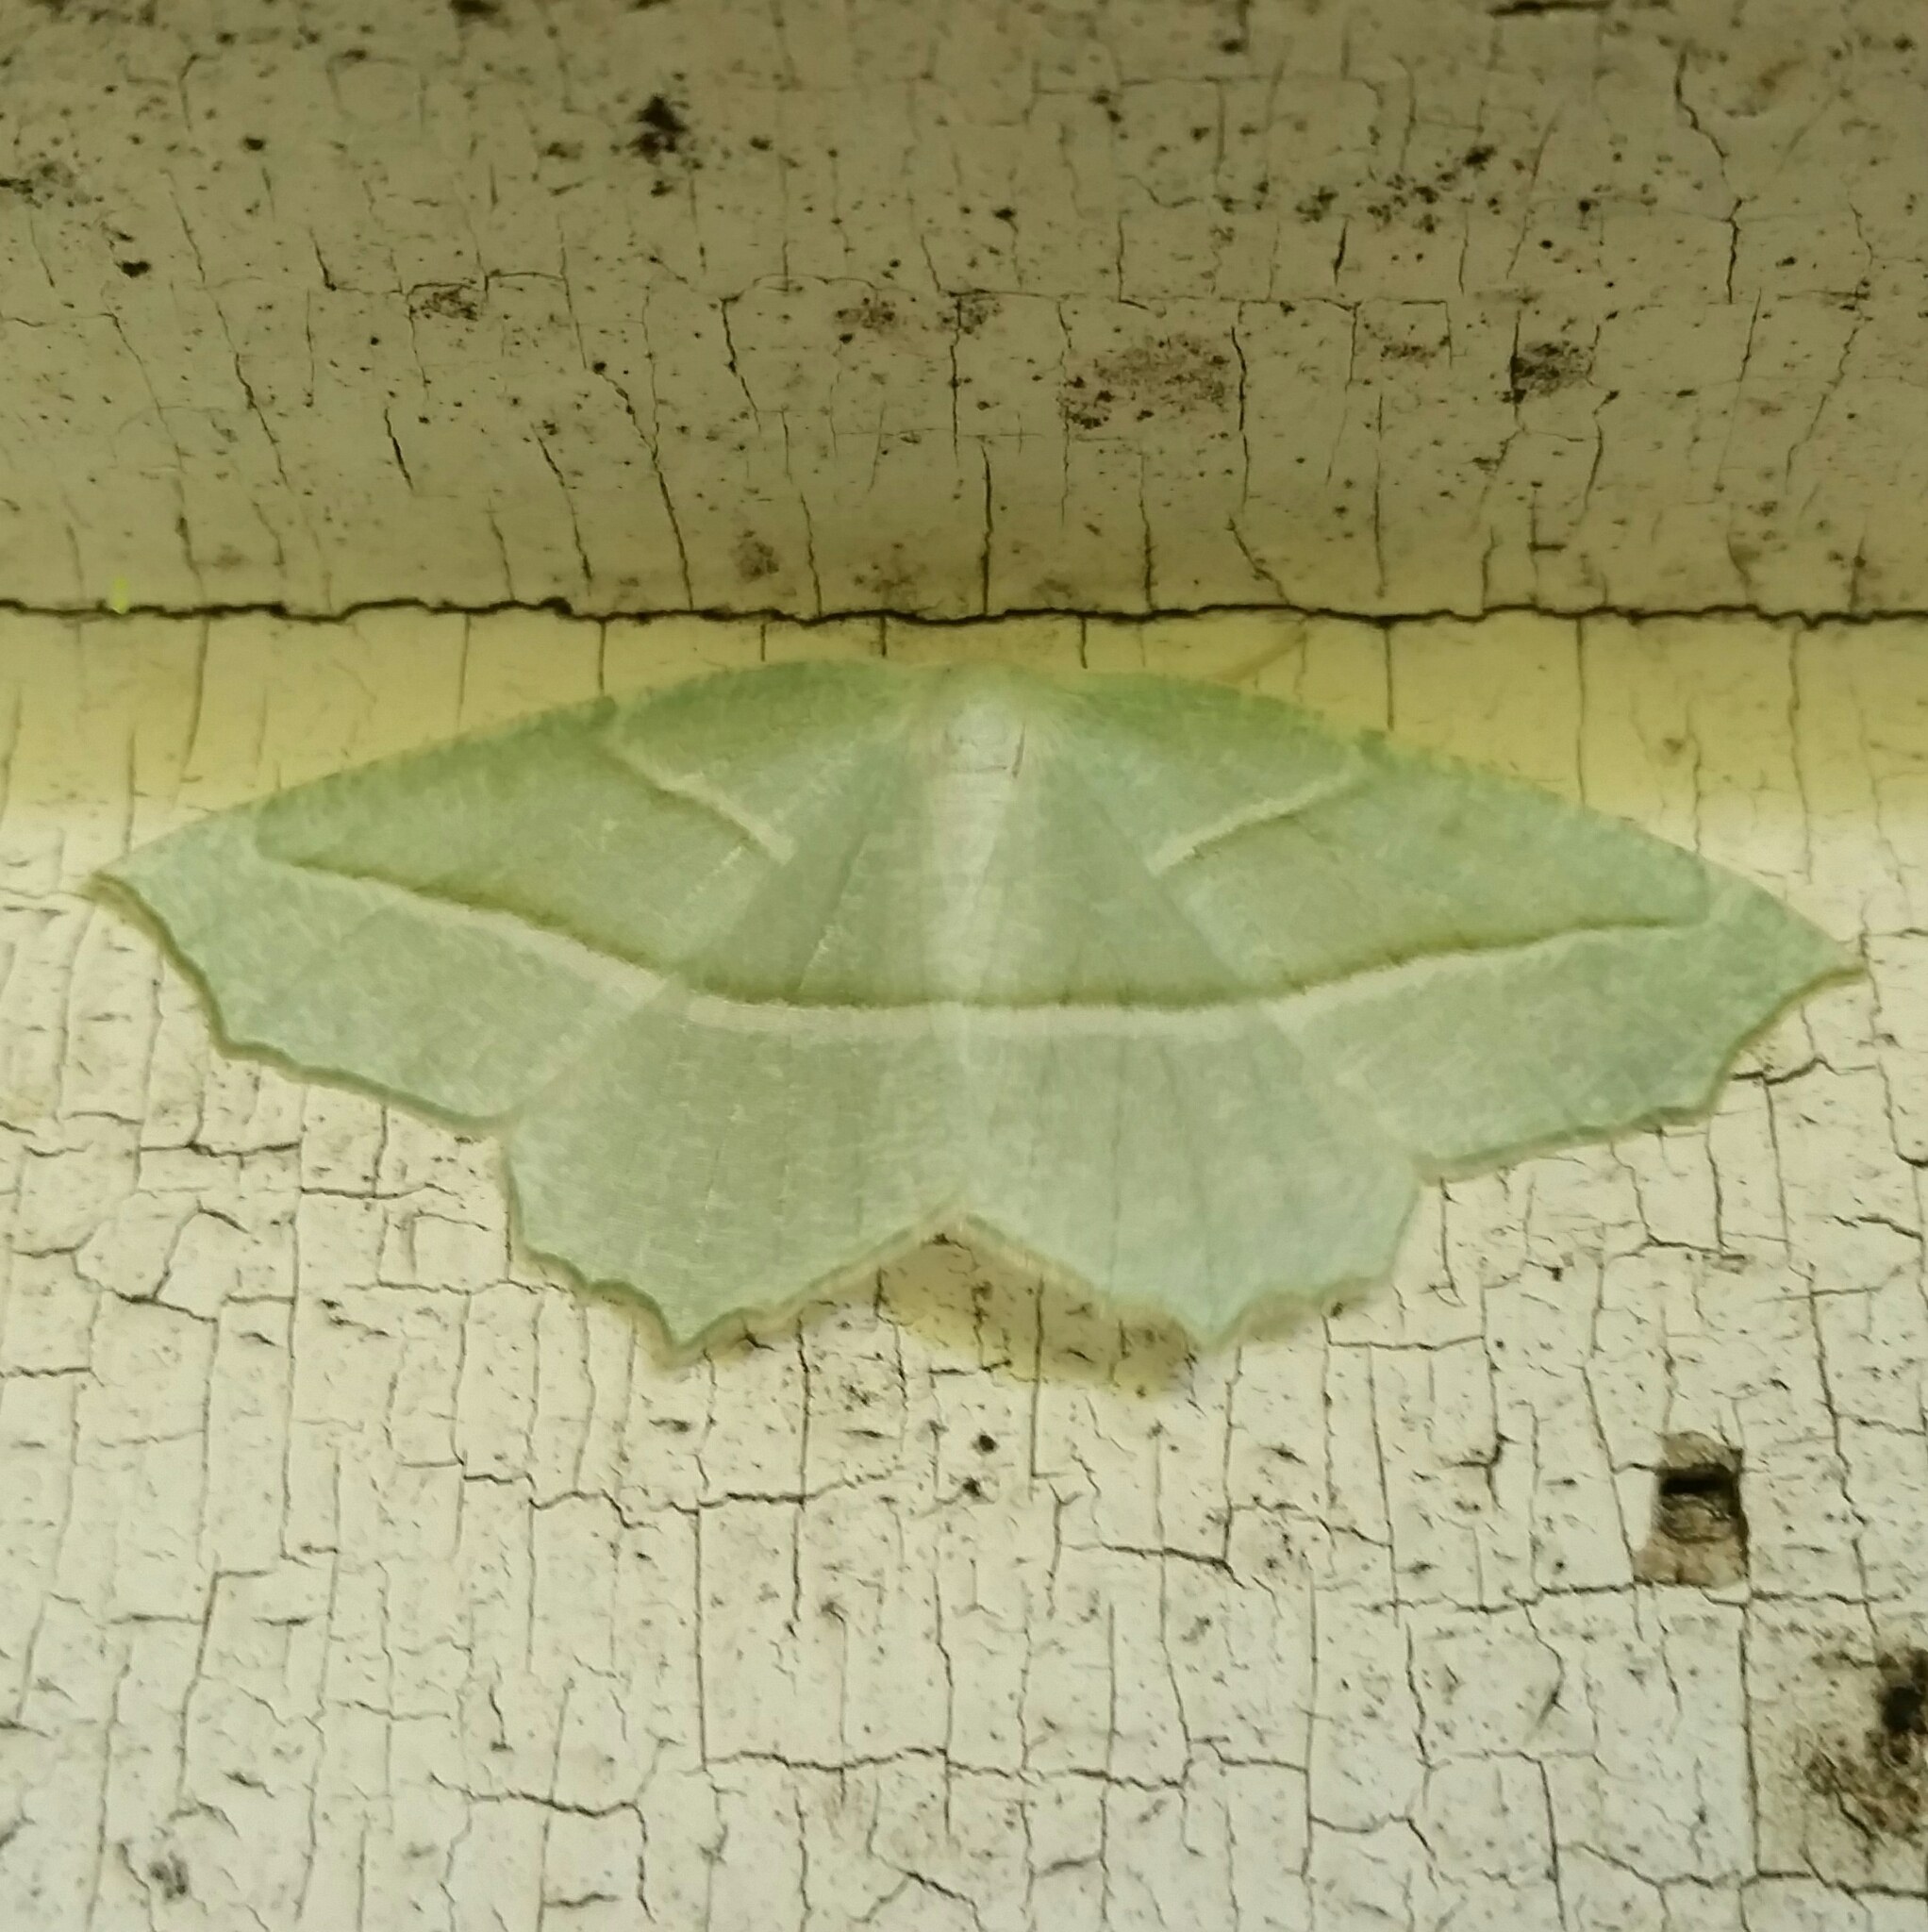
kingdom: Animalia
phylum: Arthropoda
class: Insecta
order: Lepidoptera
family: Geometridae
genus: Campaea
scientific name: Campaea perlata
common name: Fringed looper
